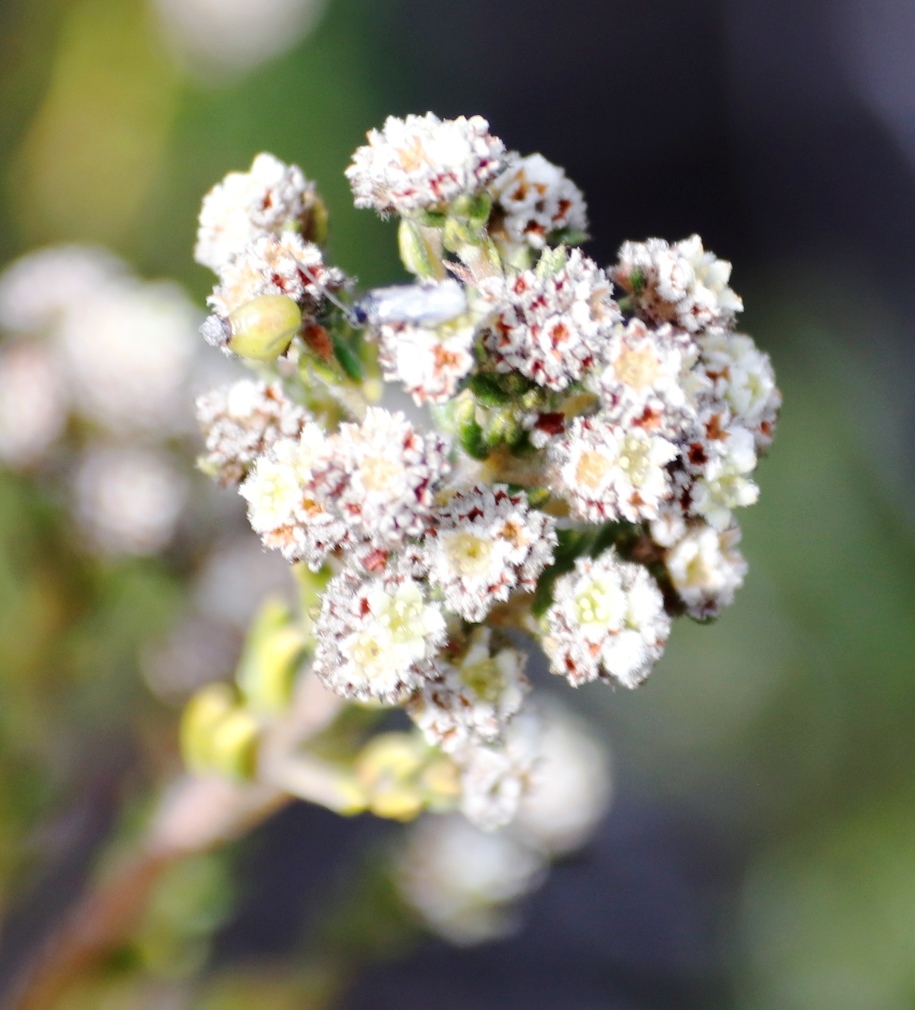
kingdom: Plantae
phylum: Tracheophyta
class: Magnoliopsida
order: Rosales
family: Rhamnaceae
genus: Phylica
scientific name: Phylica cephalantha
